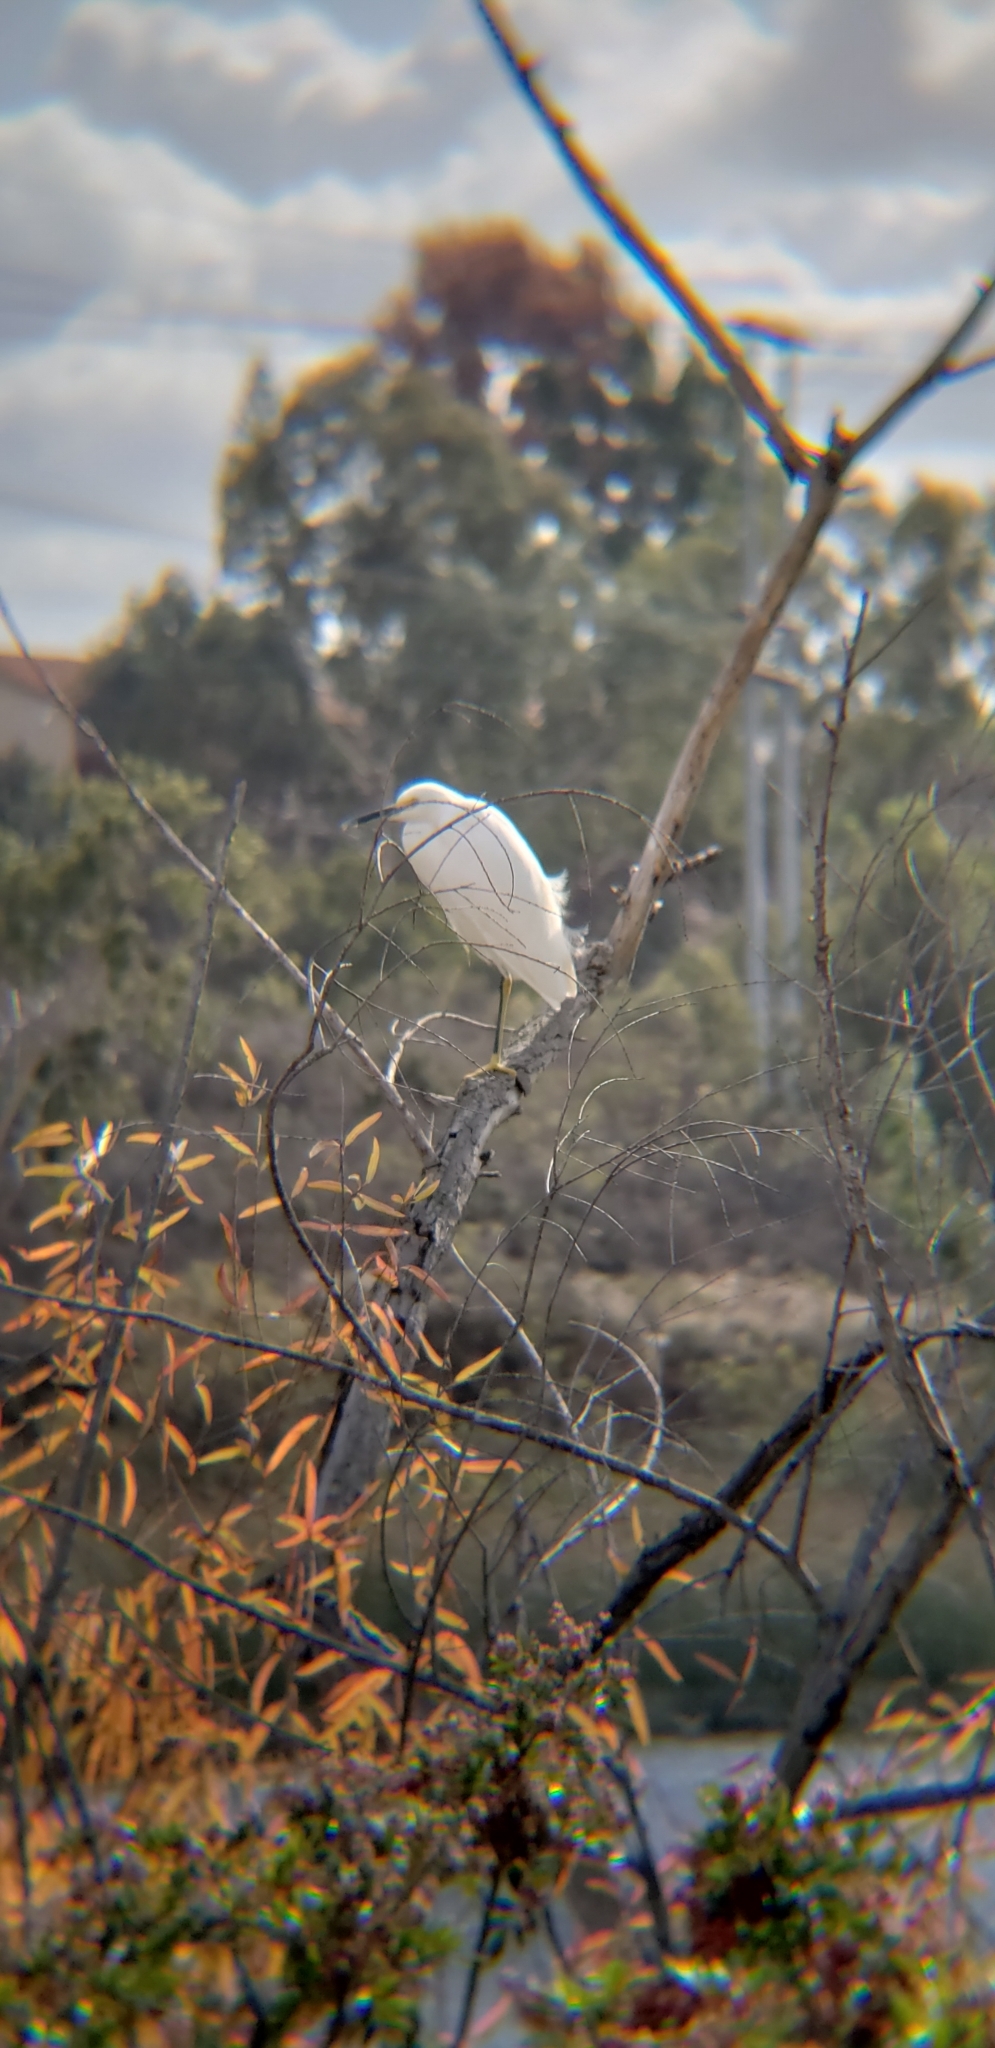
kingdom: Animalia
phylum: Chordata
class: Aves
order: Pelecaniformes
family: Ardeidae
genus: Egretta
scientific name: Egretta thula
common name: Snowy egret
